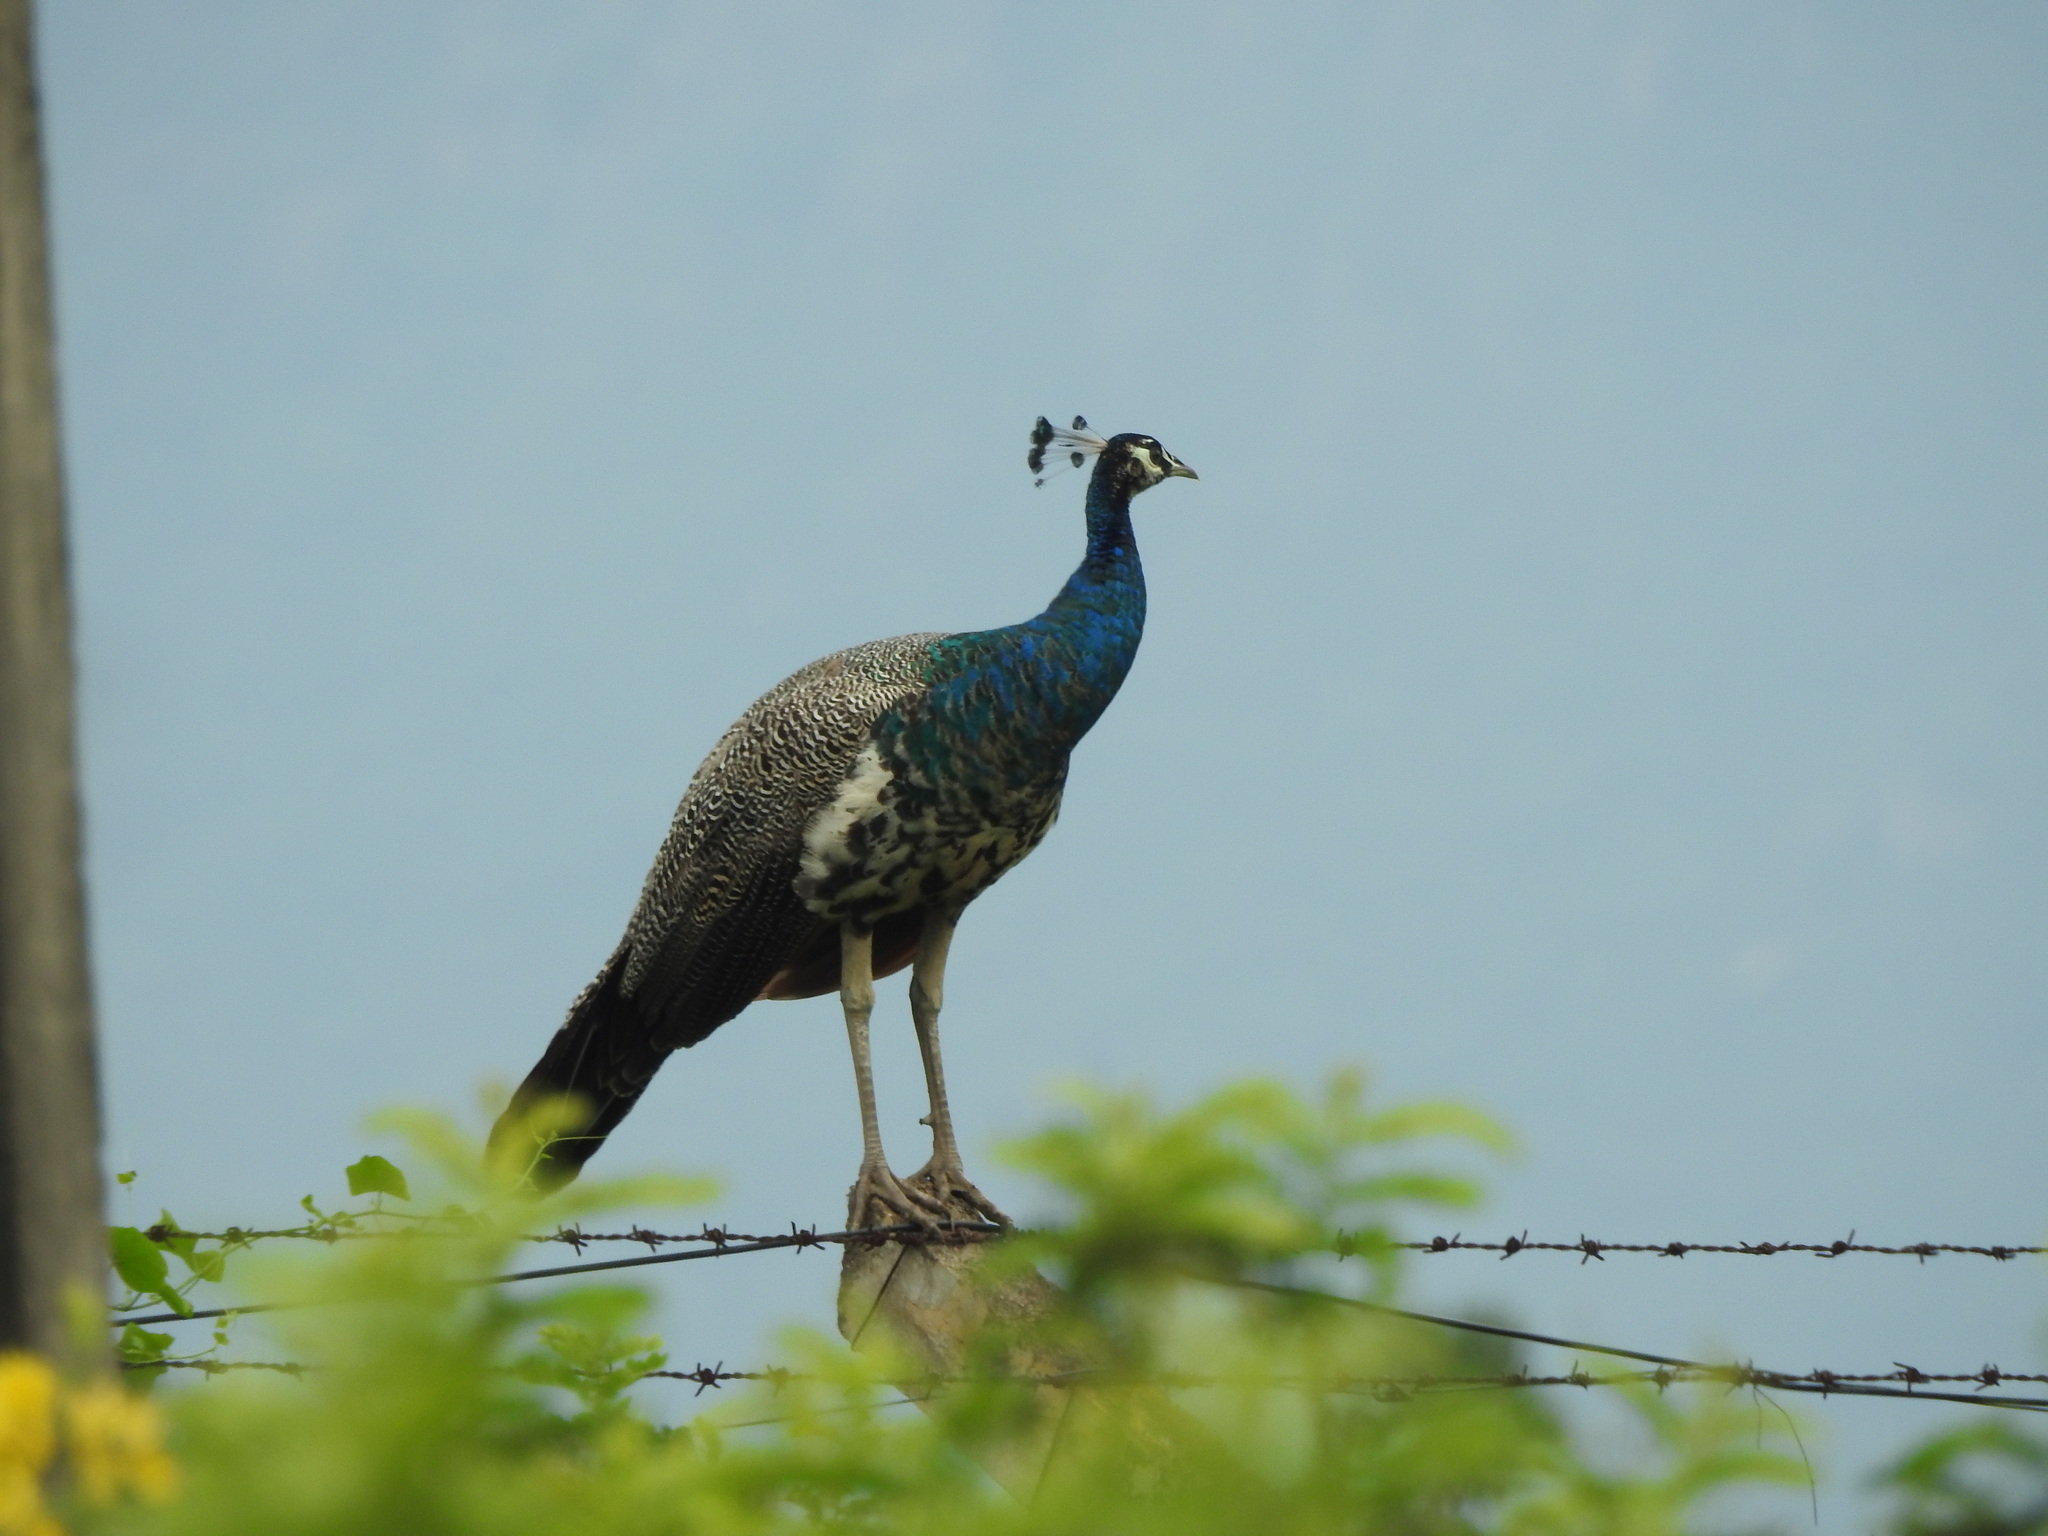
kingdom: Animalia
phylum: Chordata
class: Aves
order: Galliformes
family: Phasianidae
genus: Pavo
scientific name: Pavo cristatus
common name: Indian peafowl
